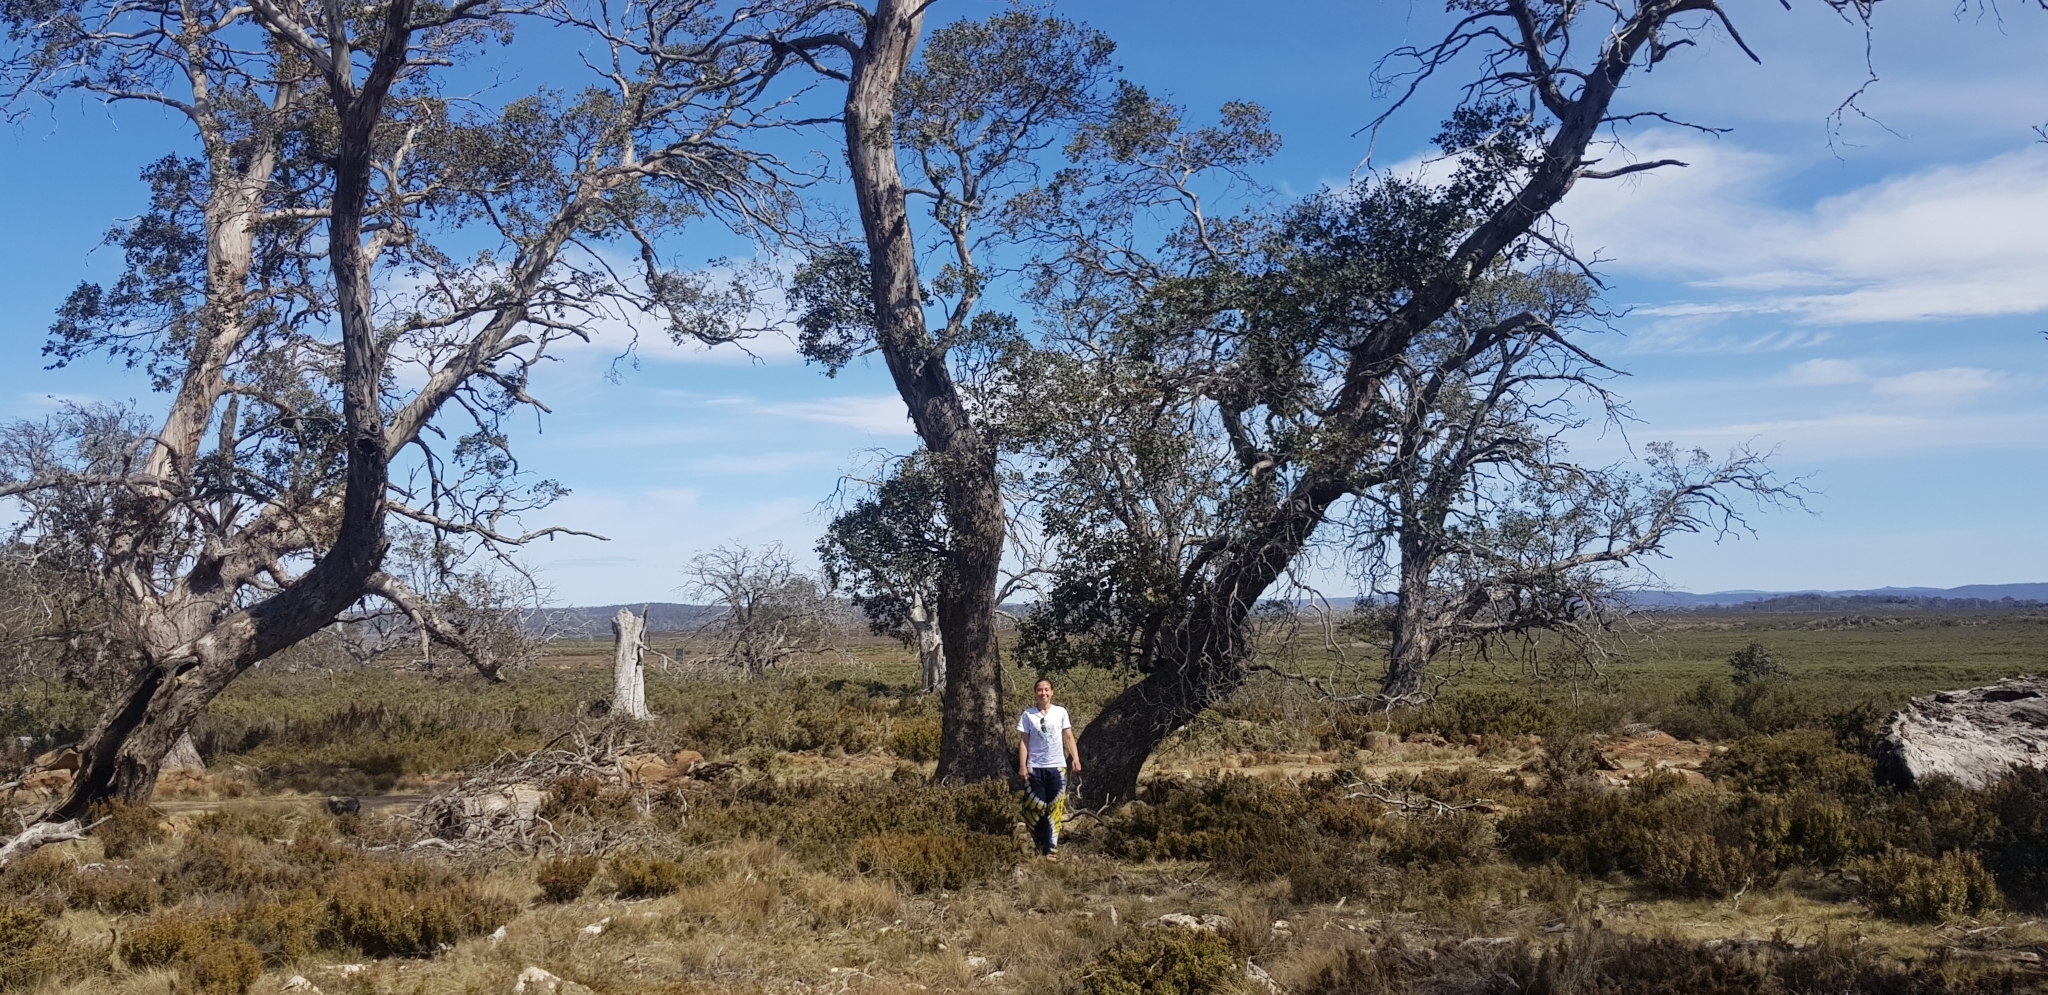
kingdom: Plantae
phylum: Tracheophyta
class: Magnoliopsida
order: Myrtales
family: Myrtaceae
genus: Eucalyptus
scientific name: Eucalyptus gunnii
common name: Cider gum
